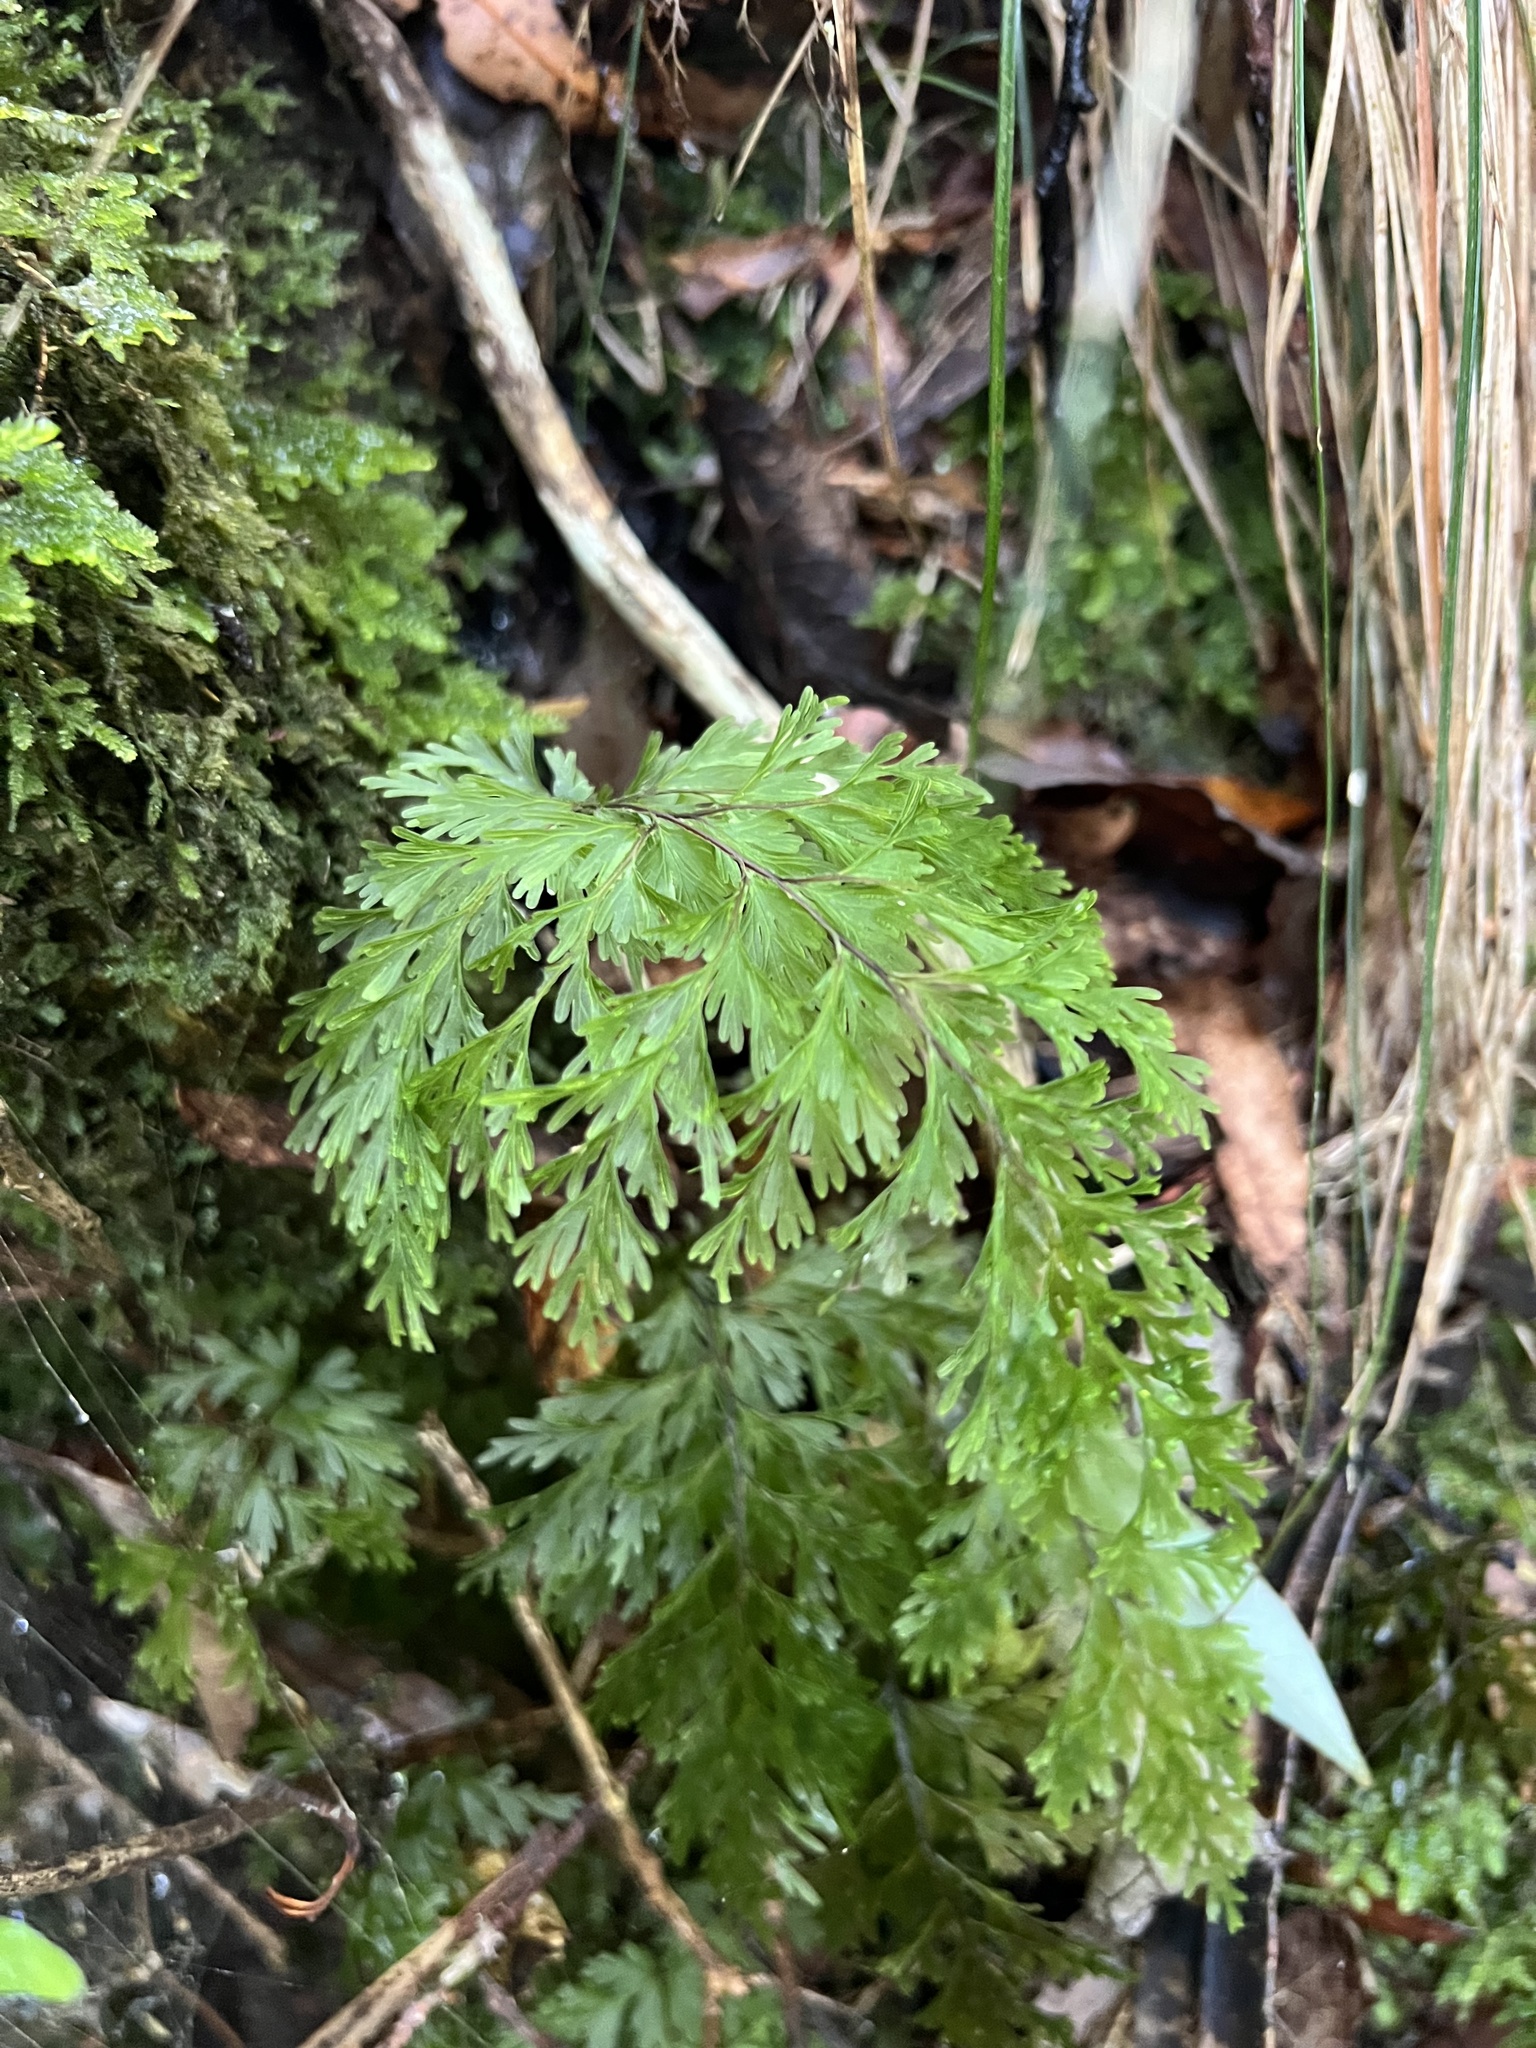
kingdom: Plantae
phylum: Tracheophyta
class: Polypodiopsida
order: Hymenophyllales
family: Hymenophyllaceae
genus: Hymenophyllum
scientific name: Hymenophyllum demissum
